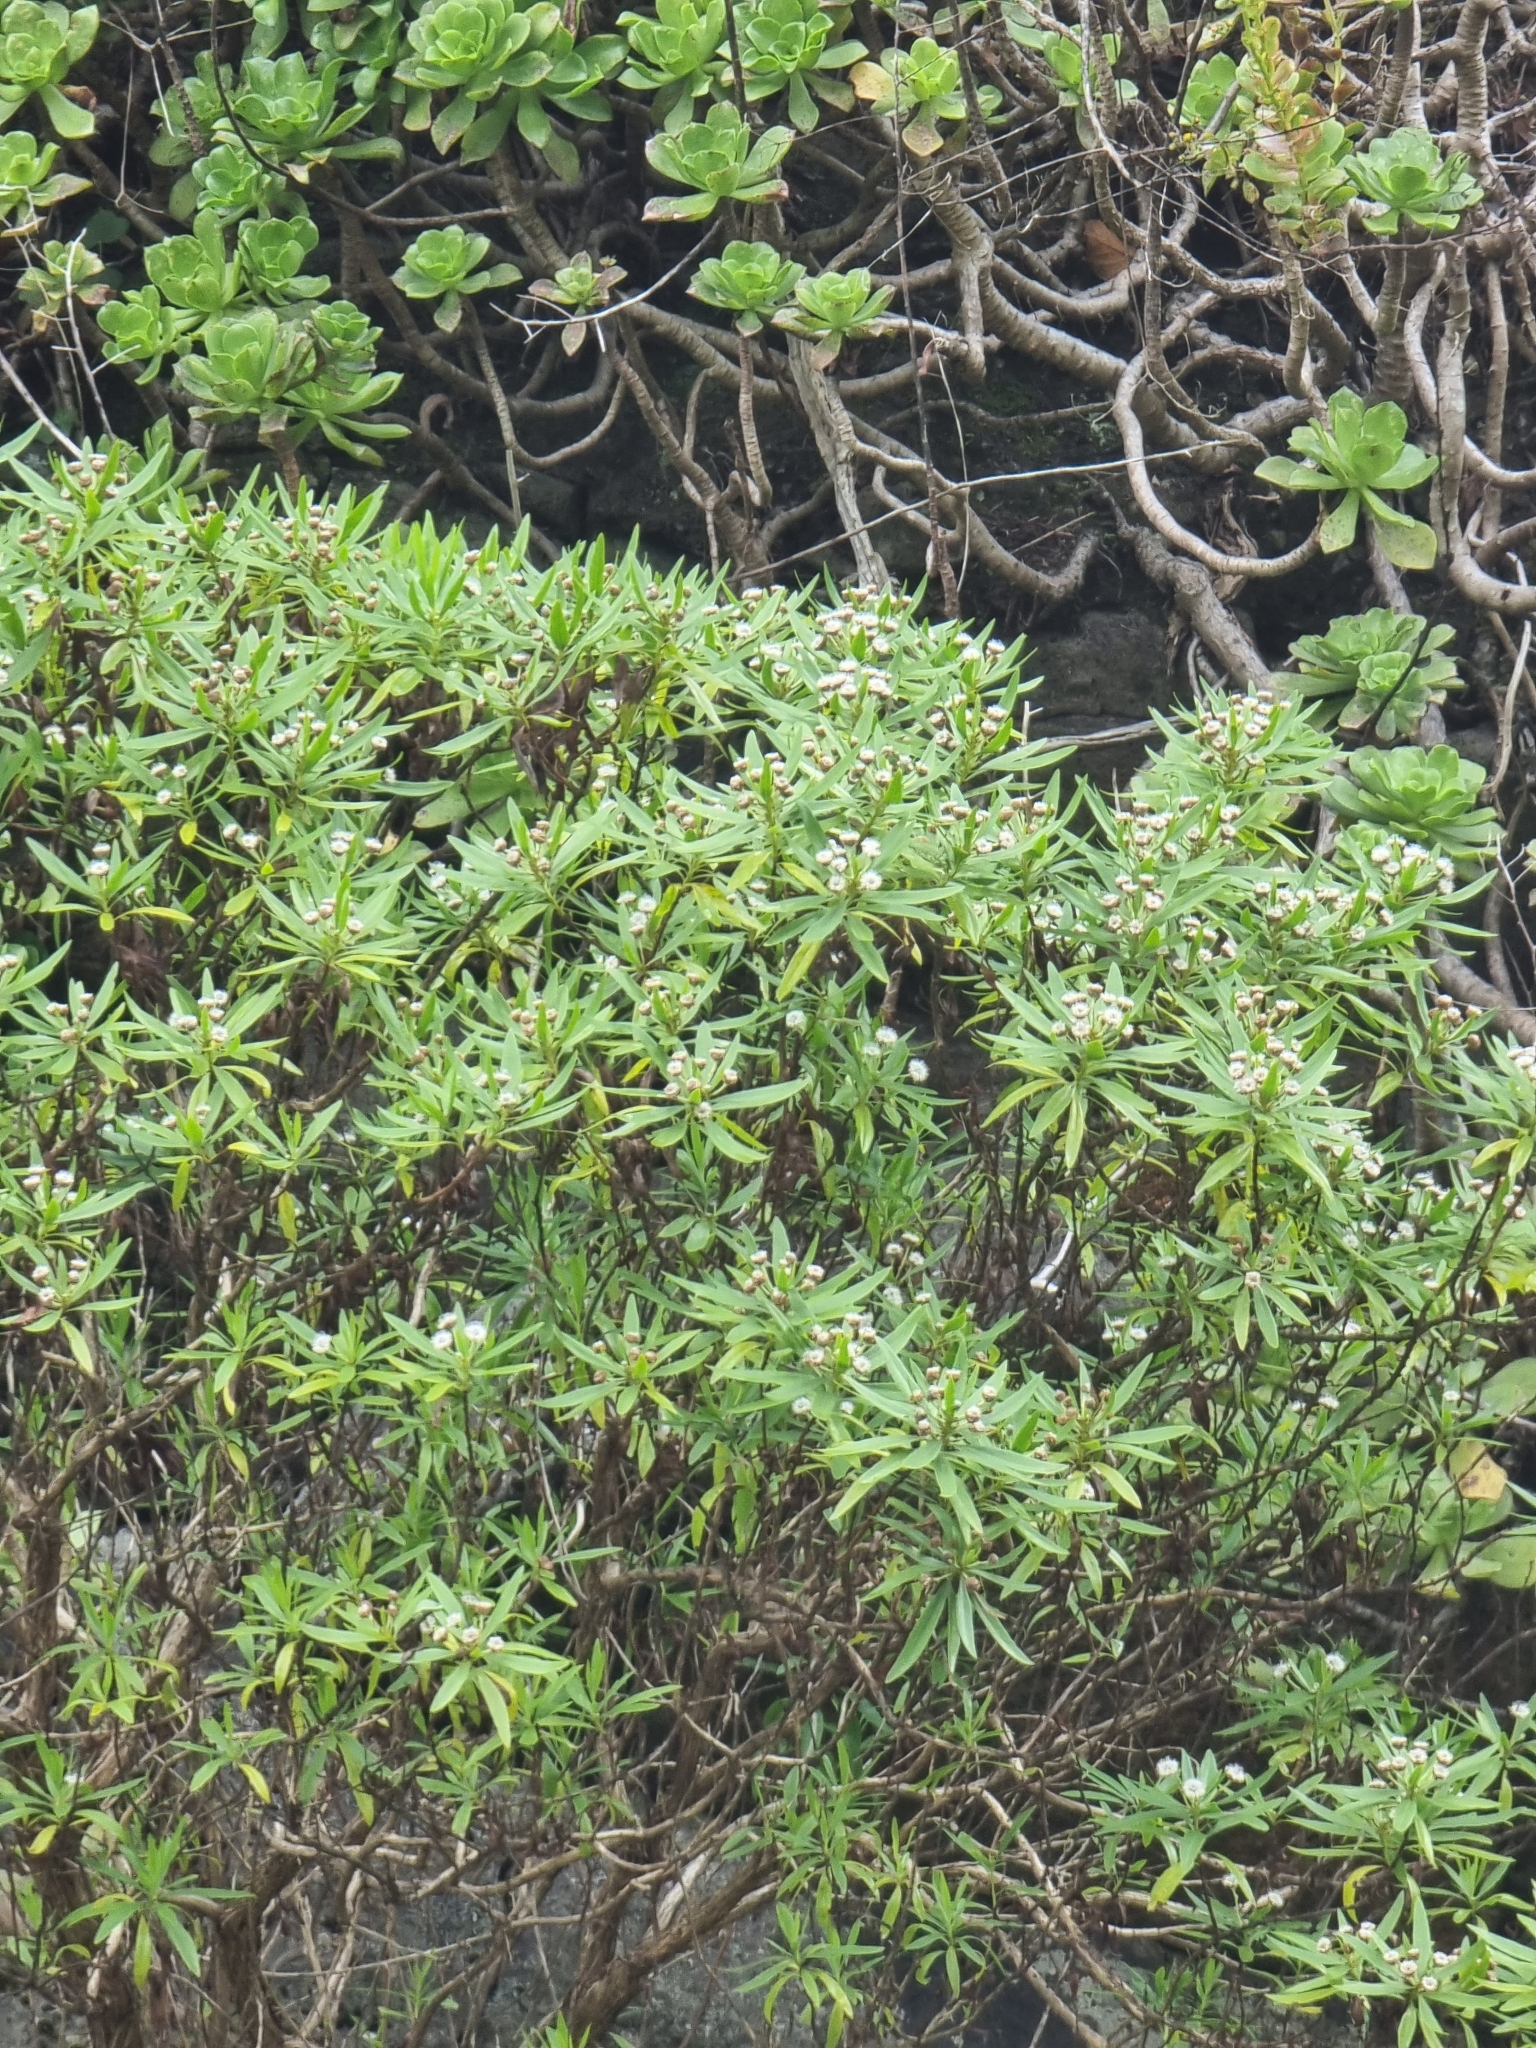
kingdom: Plantae
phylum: Tracheophyta
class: Magnoliopsida
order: Lamiales
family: Plantaginaceae
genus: Globularia
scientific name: Globularia salicina
